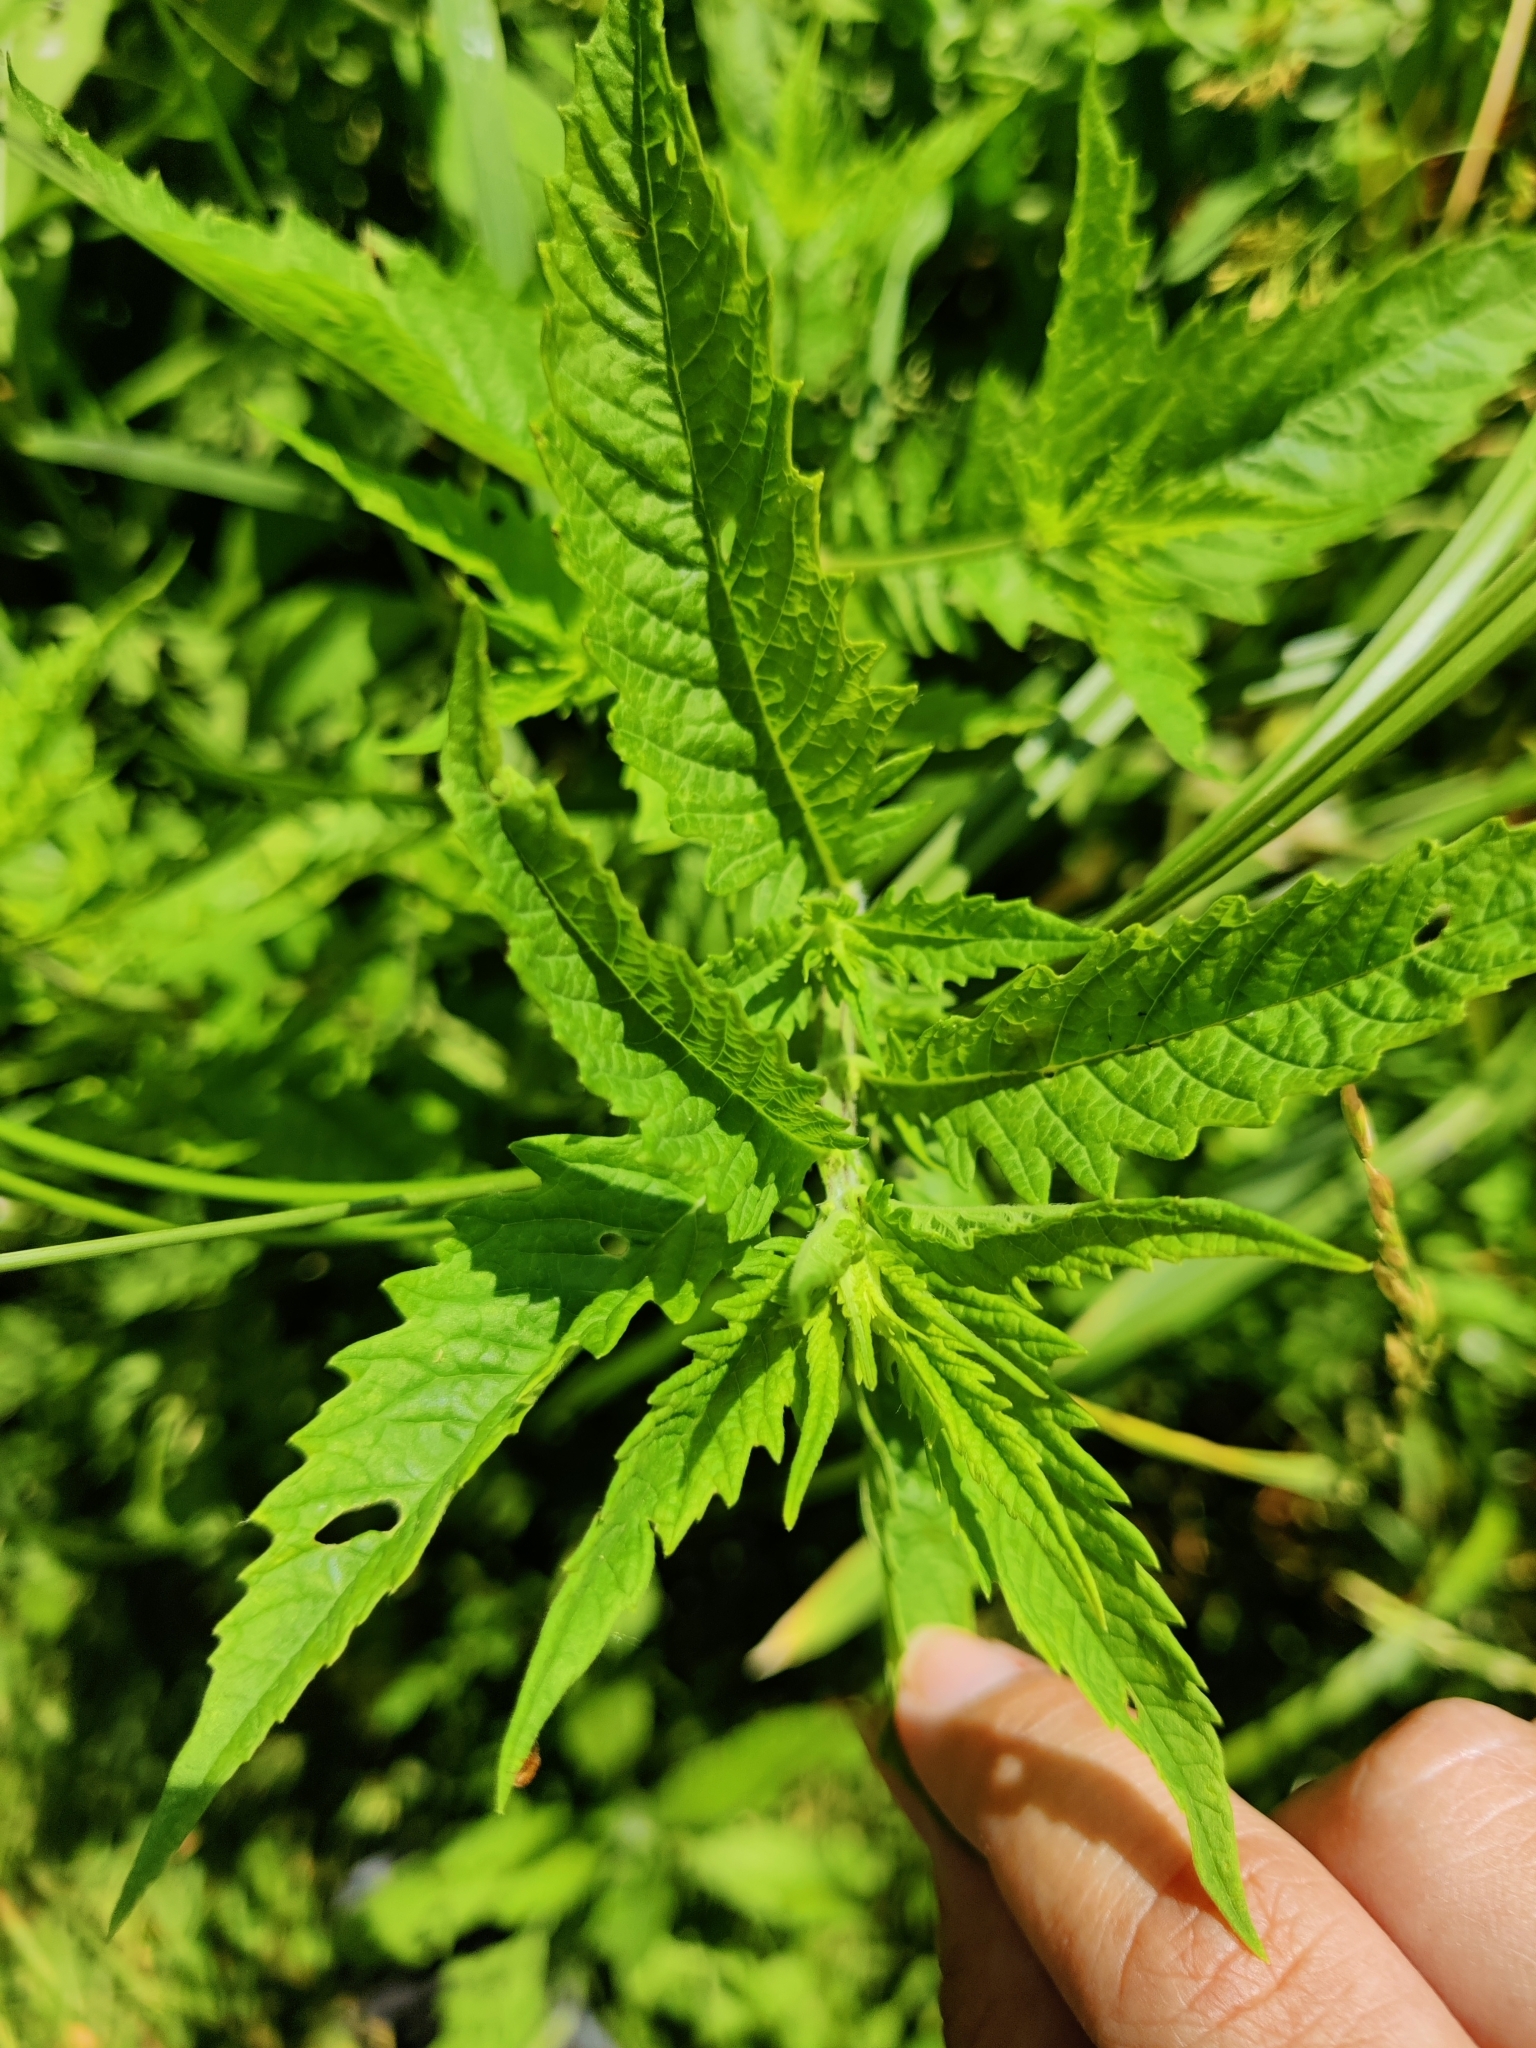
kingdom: Plantae
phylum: Tracheophyta
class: Magnoliopsida
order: Lamiales
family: Lamiaceae
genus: Lycopus
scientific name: Lycopus europaeus
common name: European bugleweed
